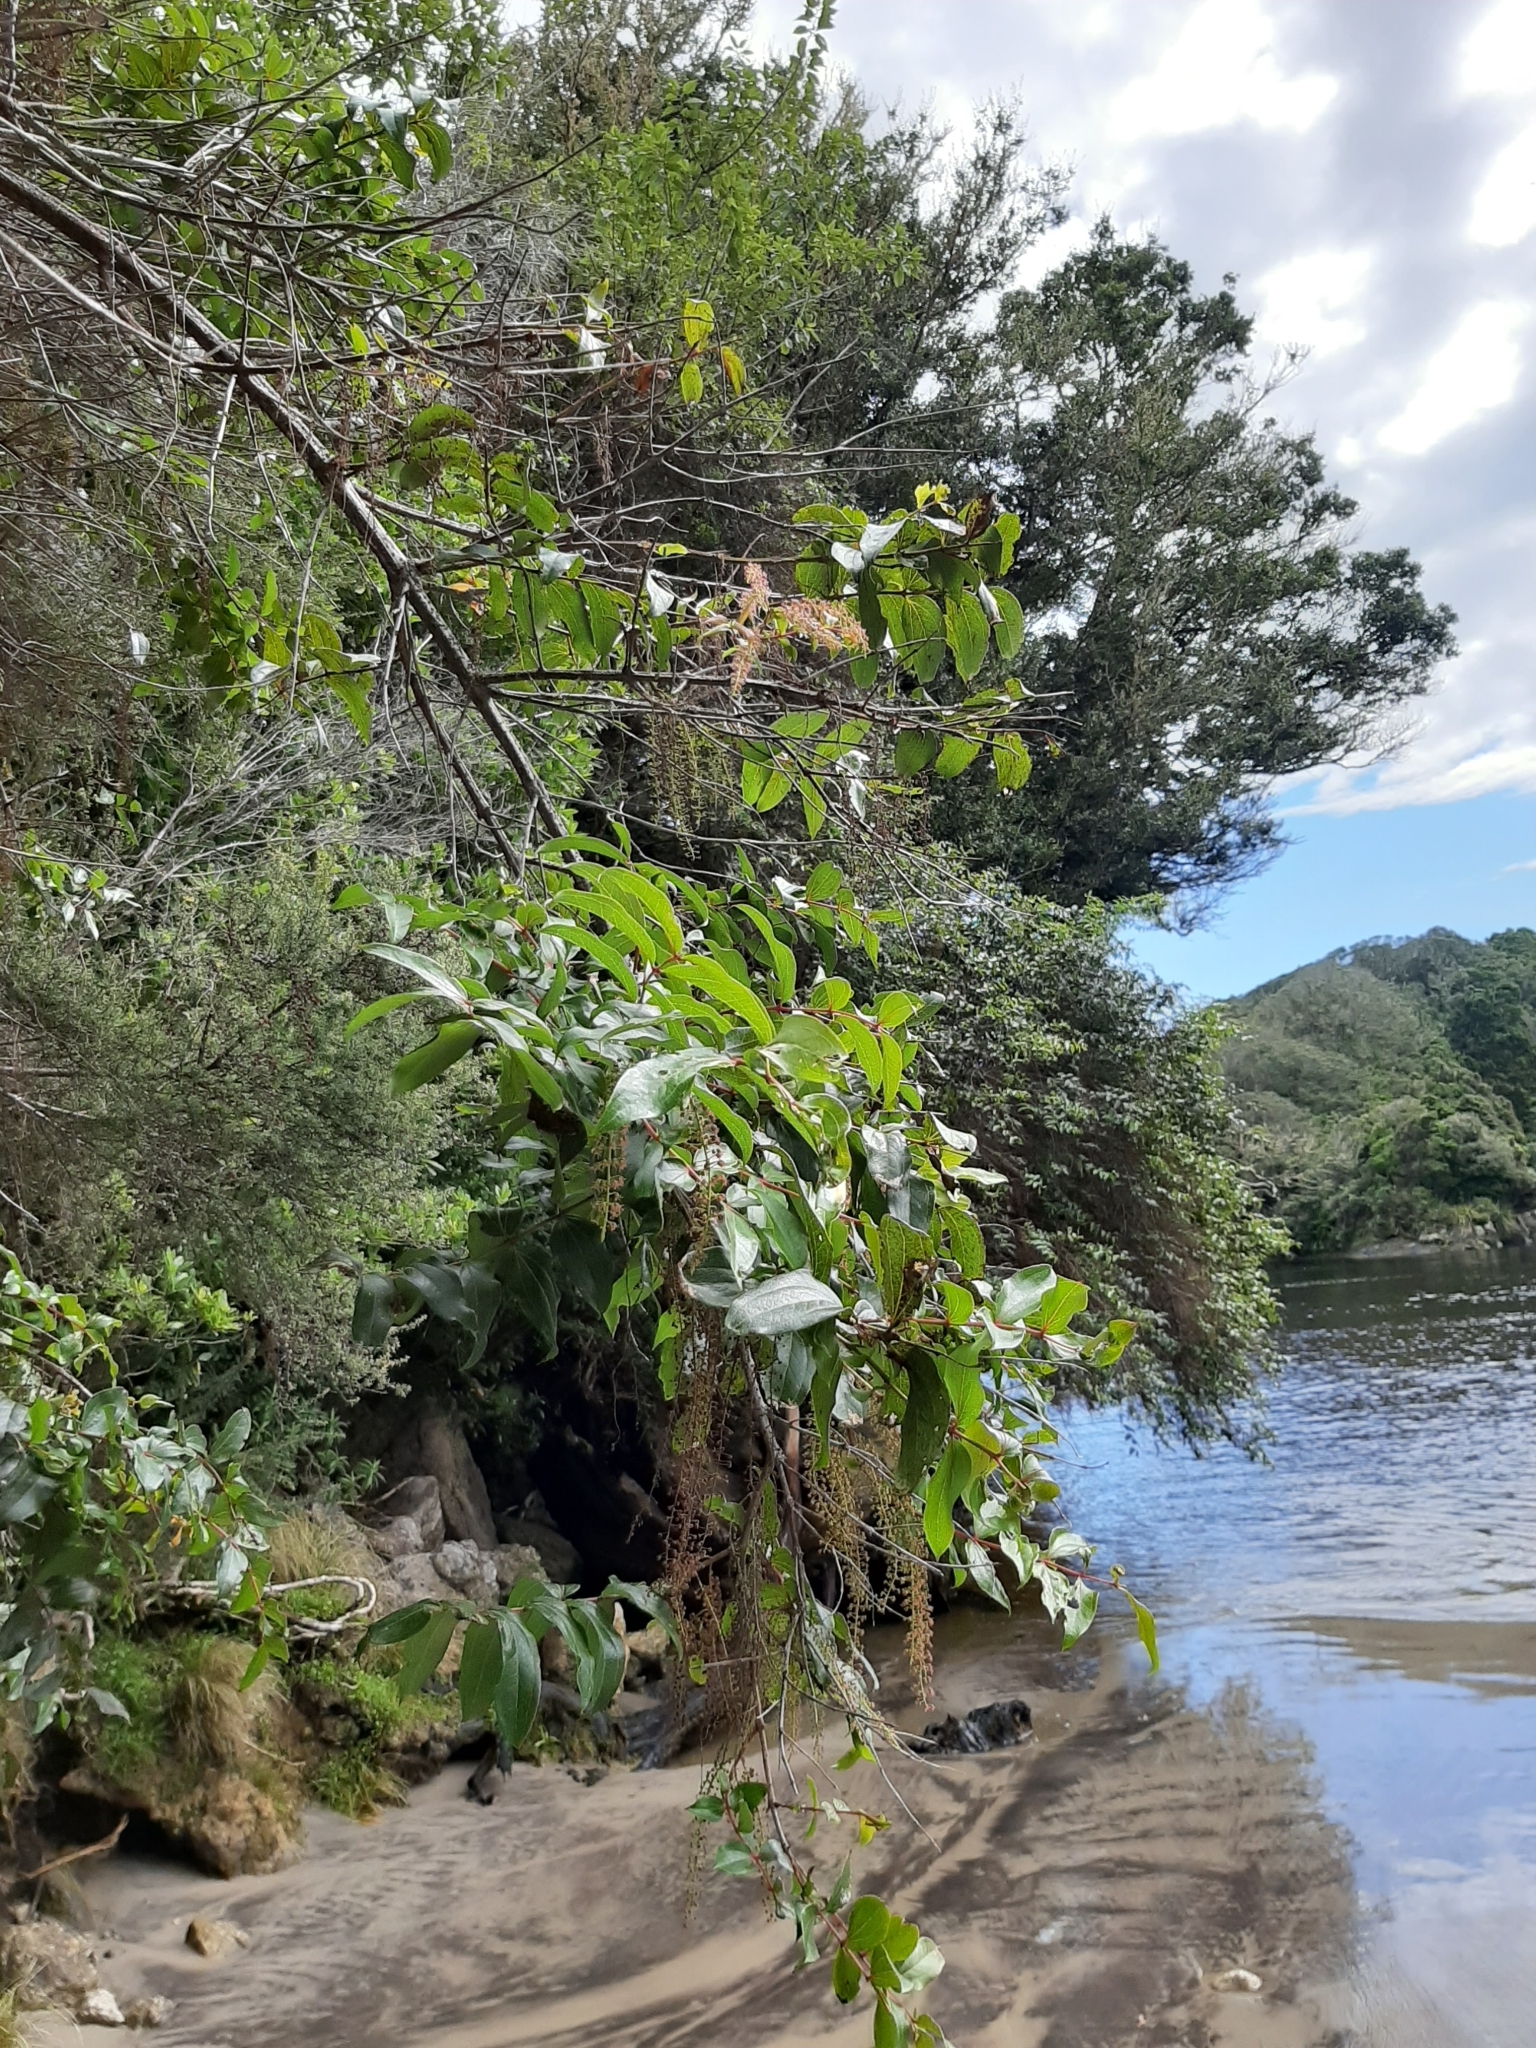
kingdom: Plantae
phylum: Tracheophyta
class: Magnoliopsida
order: Cucurbitales
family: Coriariaceae
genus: Coriaria
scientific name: Coriaria arborea
